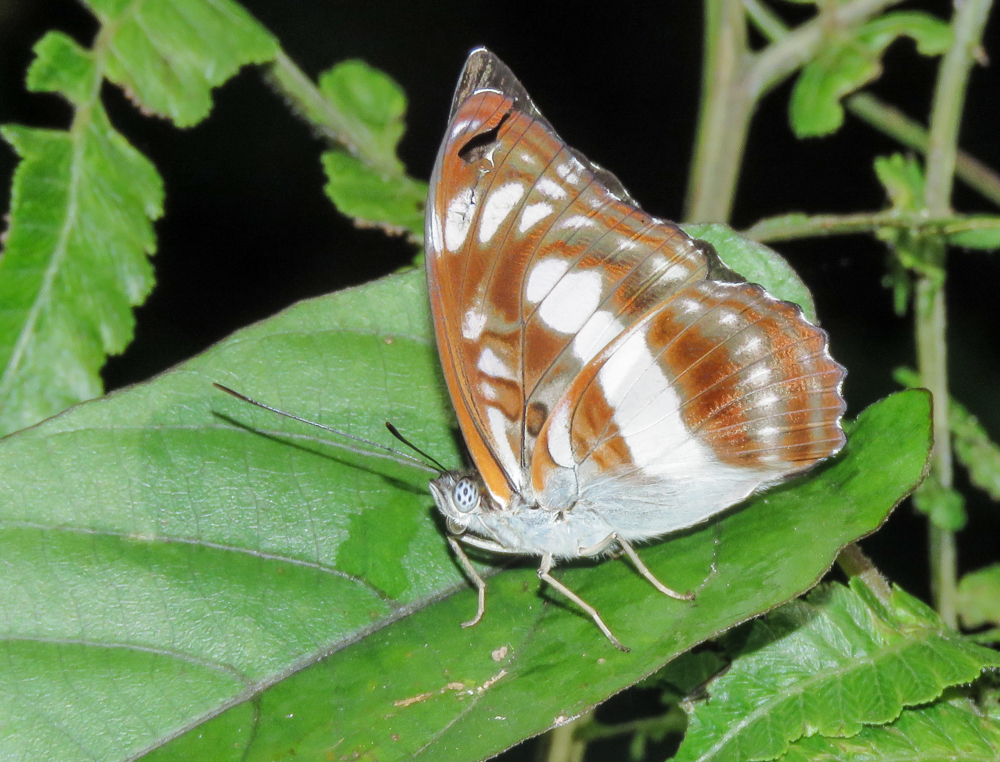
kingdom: Animalia
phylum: Arthropoda
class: Insecta
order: Lepidoptera
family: Nymphalidae
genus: Parathyma
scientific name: Parathyma selenophora
